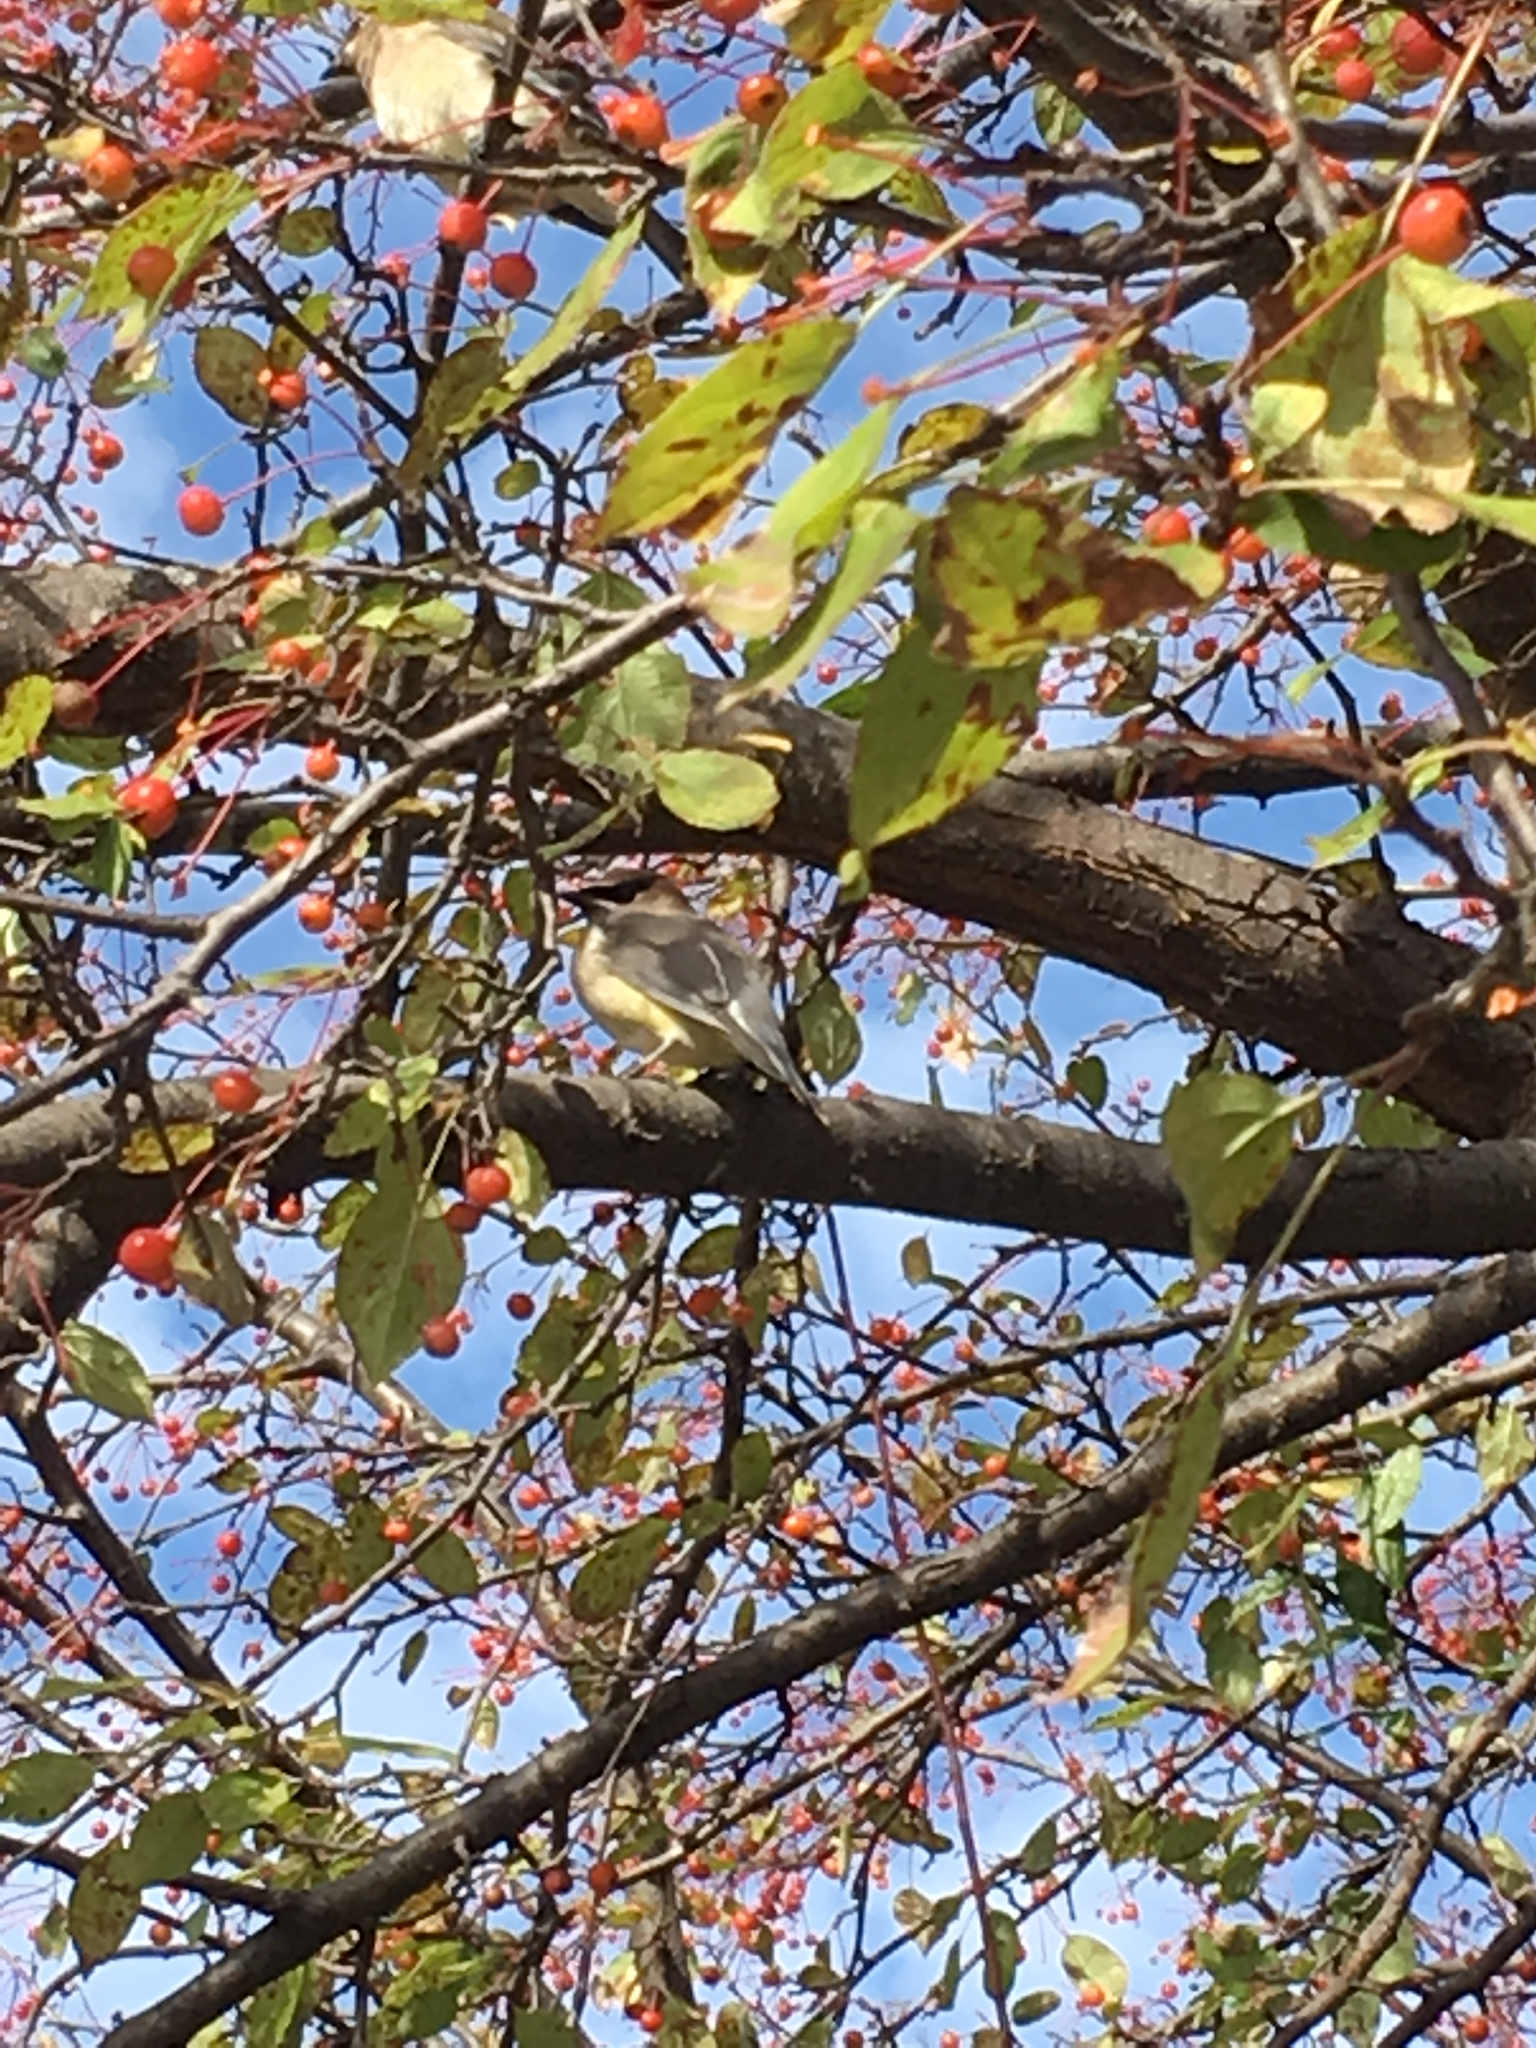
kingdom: Animalia
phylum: Chordata
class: Aves
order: Passeriformes
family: Bombycillidae
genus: Bombycilla
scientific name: Bombycilla cedrorum
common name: Cedar waxwing
